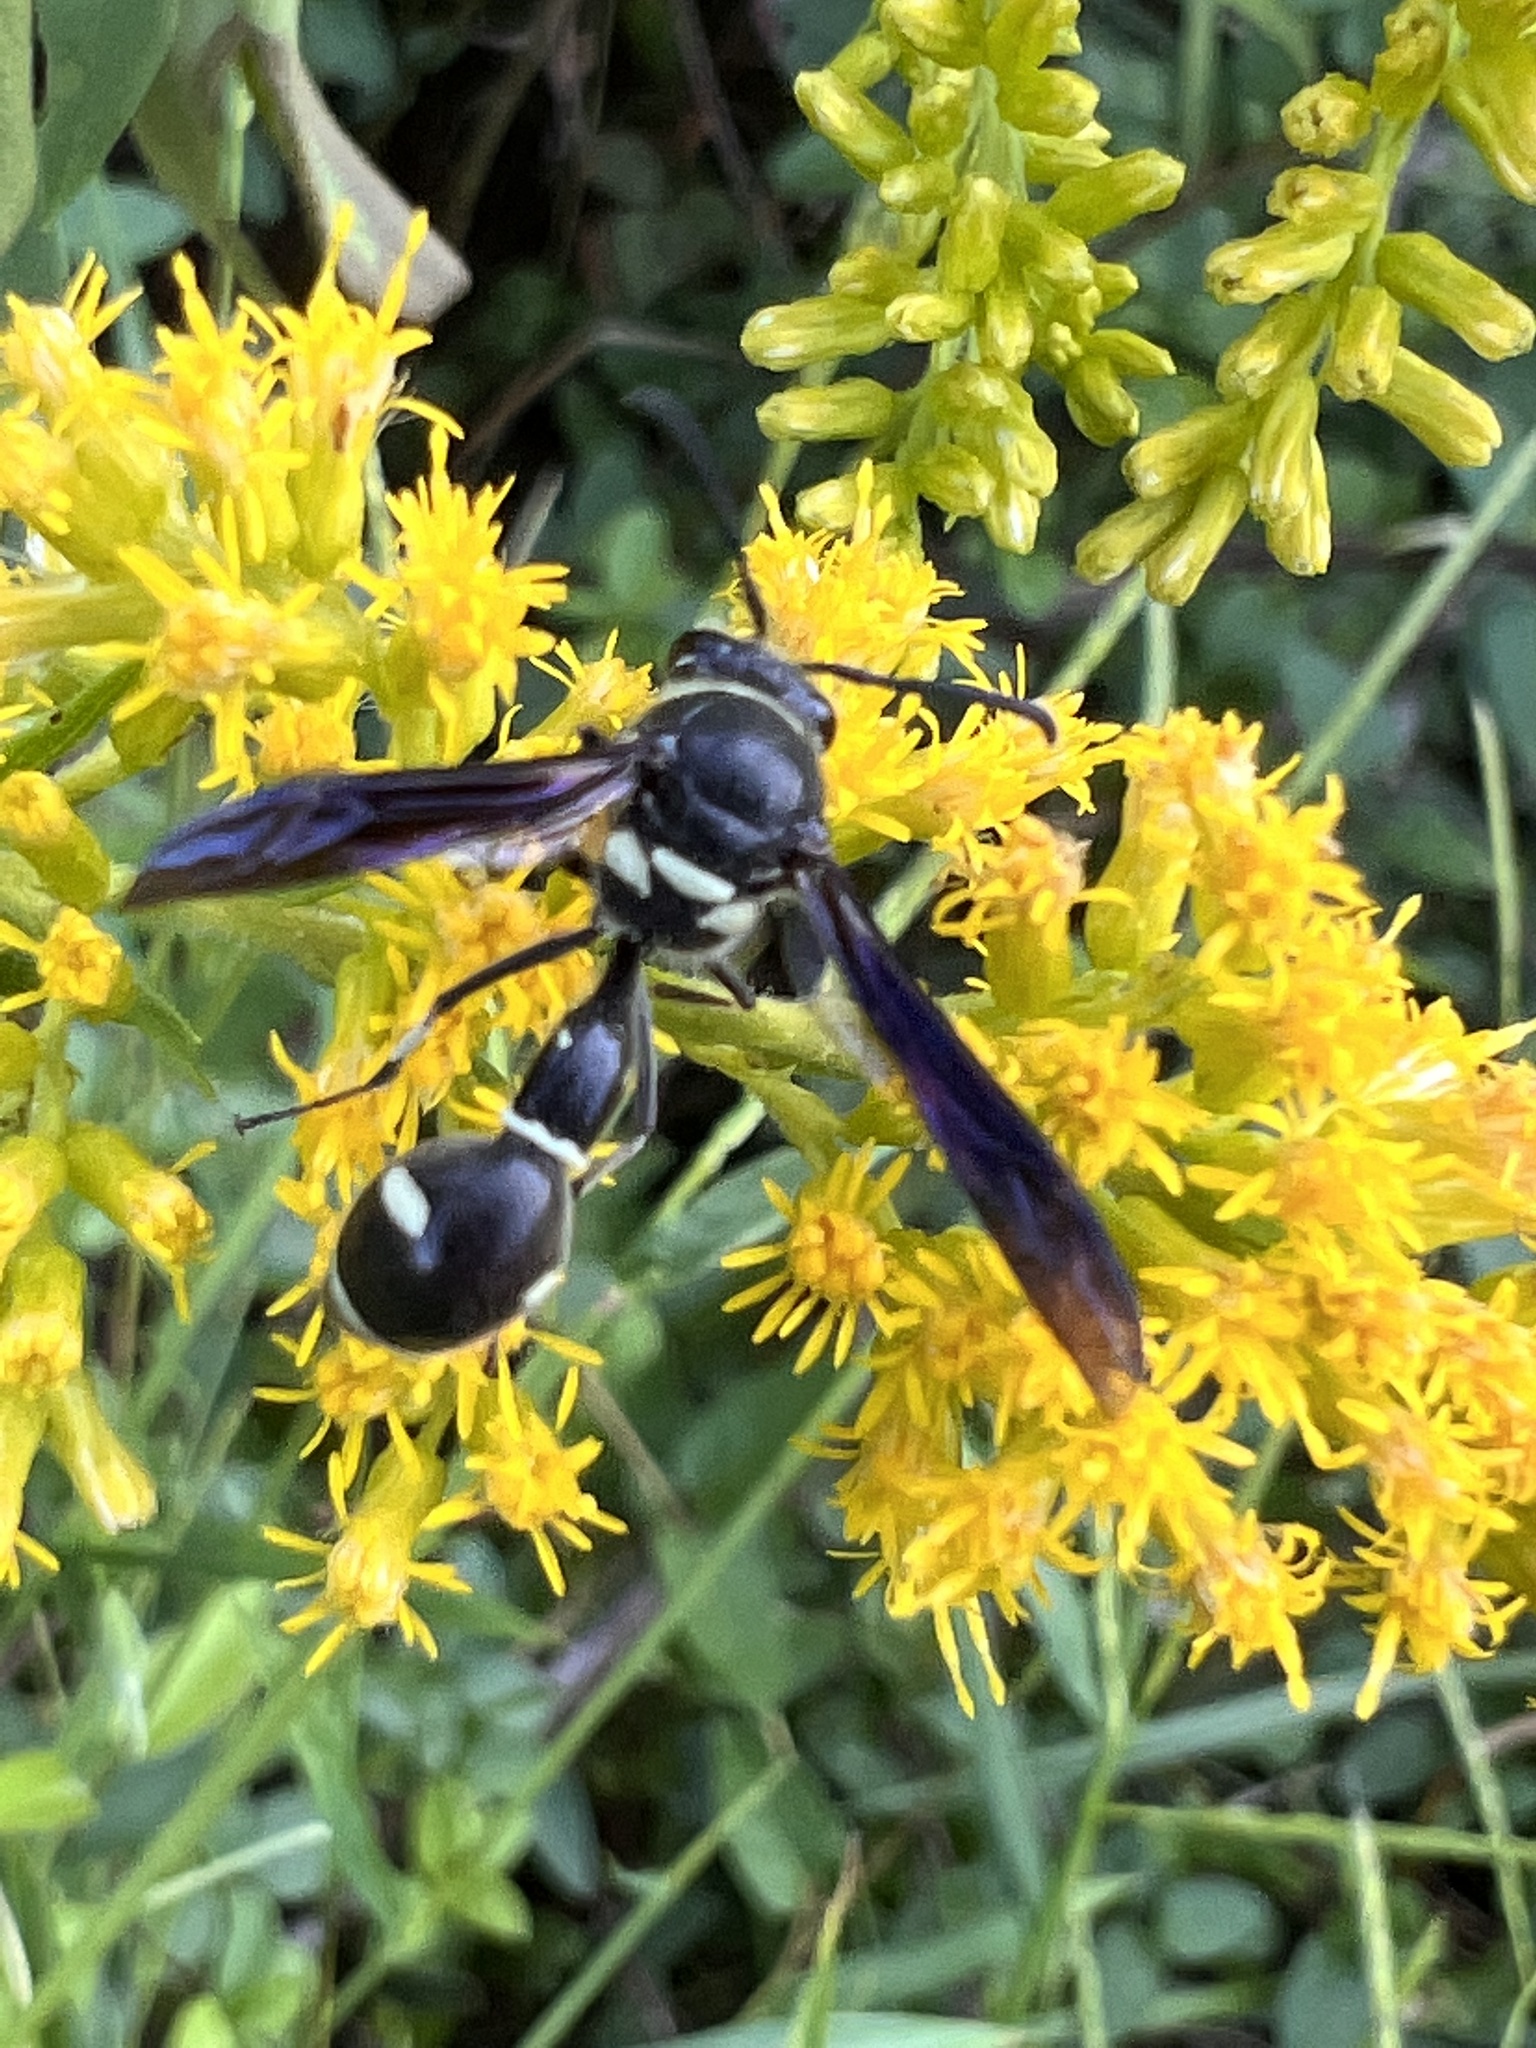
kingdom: Animalia
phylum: Arthropoda
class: Insecta
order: Hymenoptera
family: Vespidae
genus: Eumenes
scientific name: Eumenes fraternus
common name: Fraternal potter wasp
